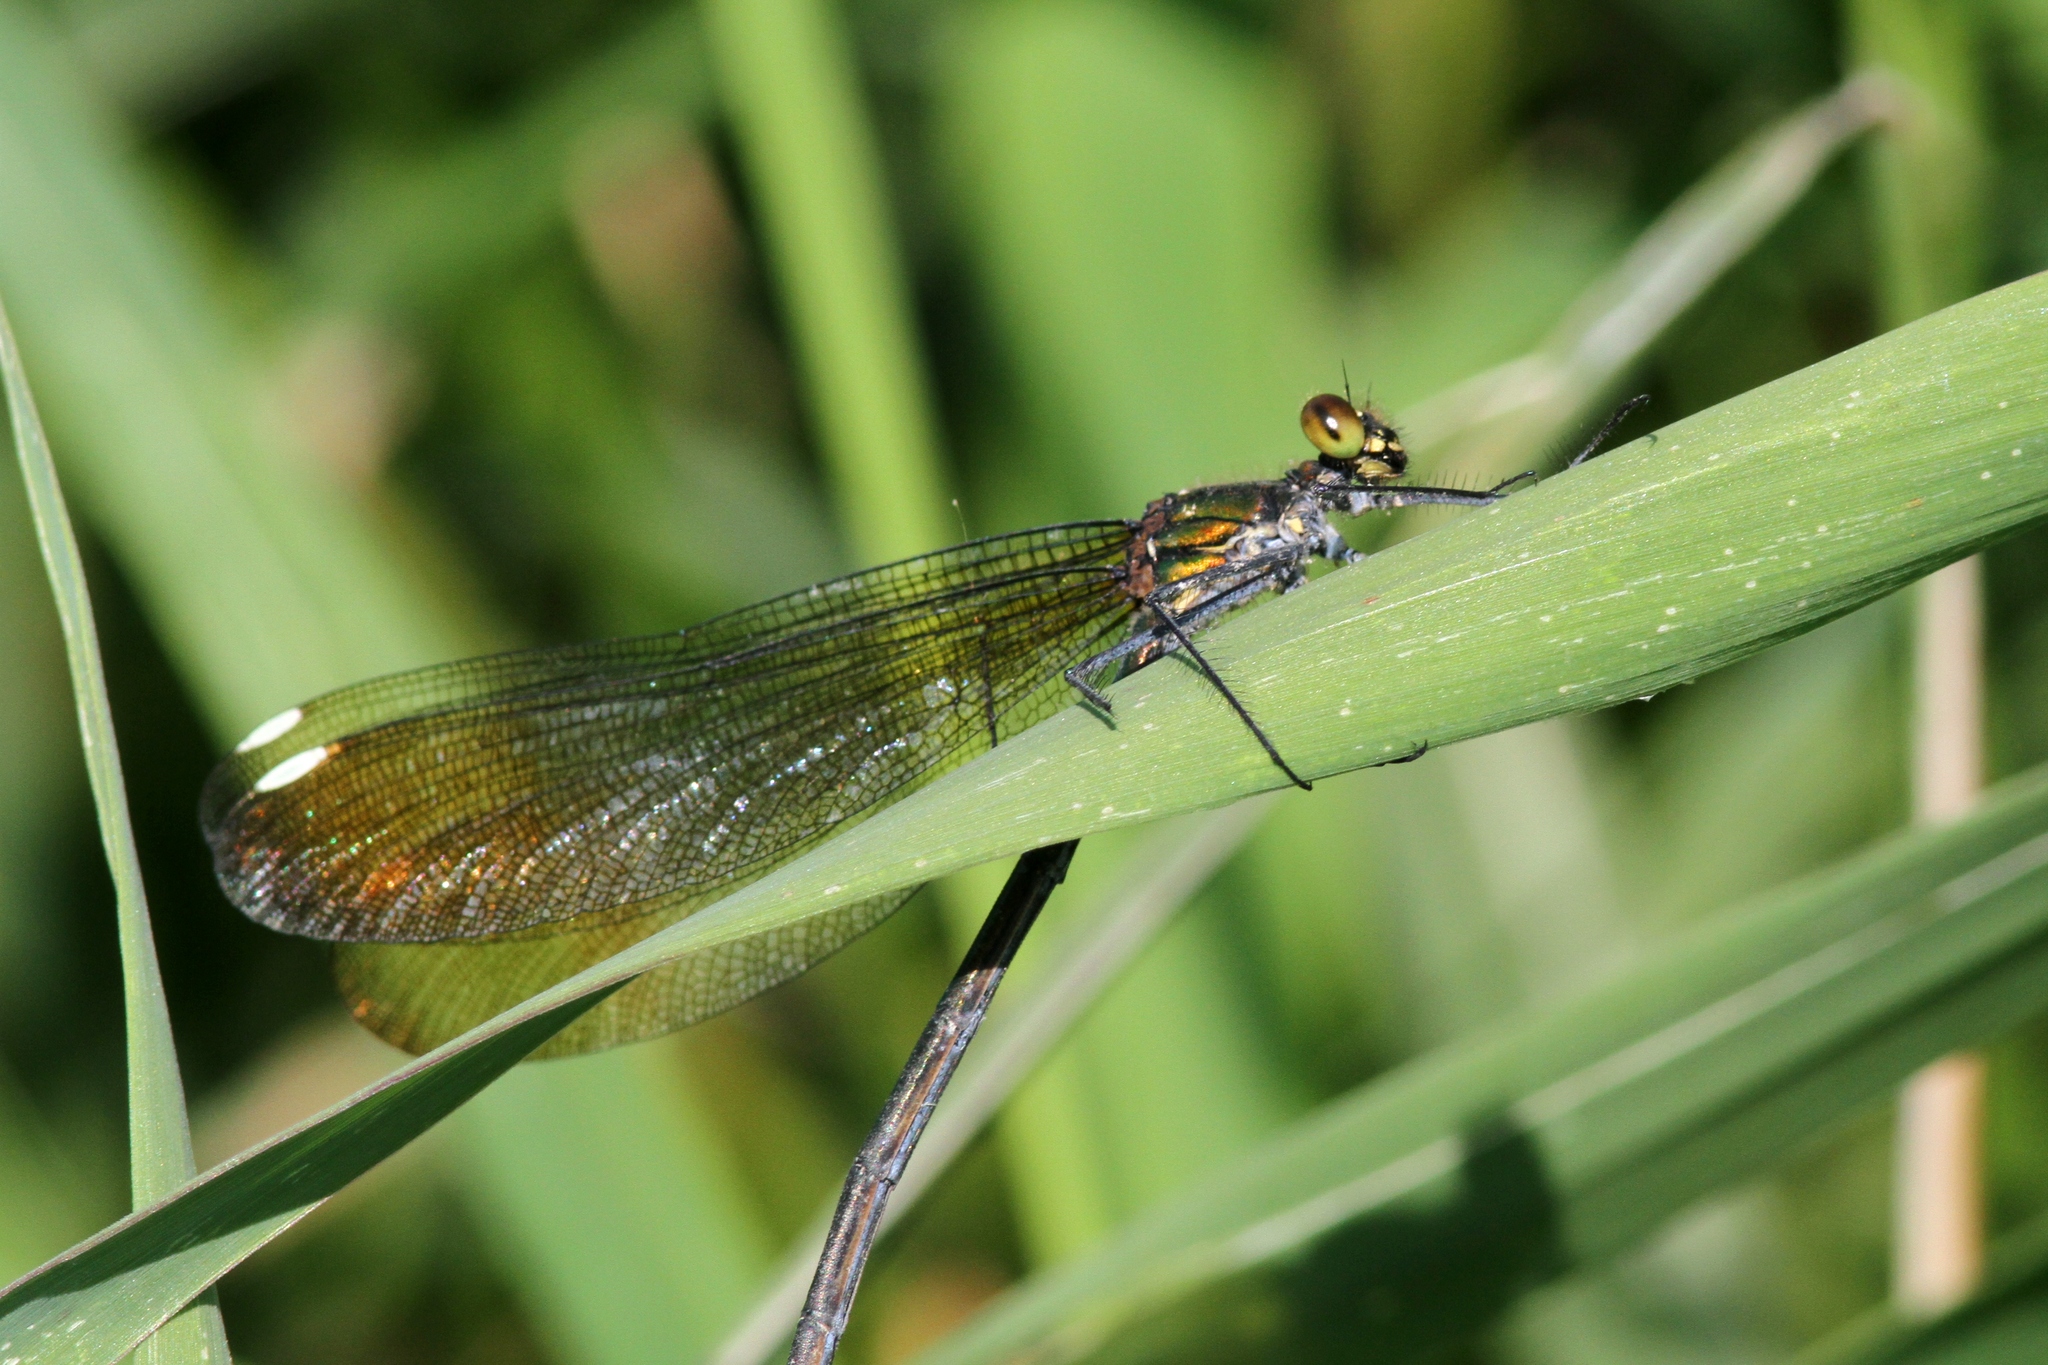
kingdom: Animalia
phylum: Arthropoda
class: Insecta
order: Odonata
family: Calopterygidae
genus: Calopteryx
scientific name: Calopteryx aequabilis
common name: River jewelwing
